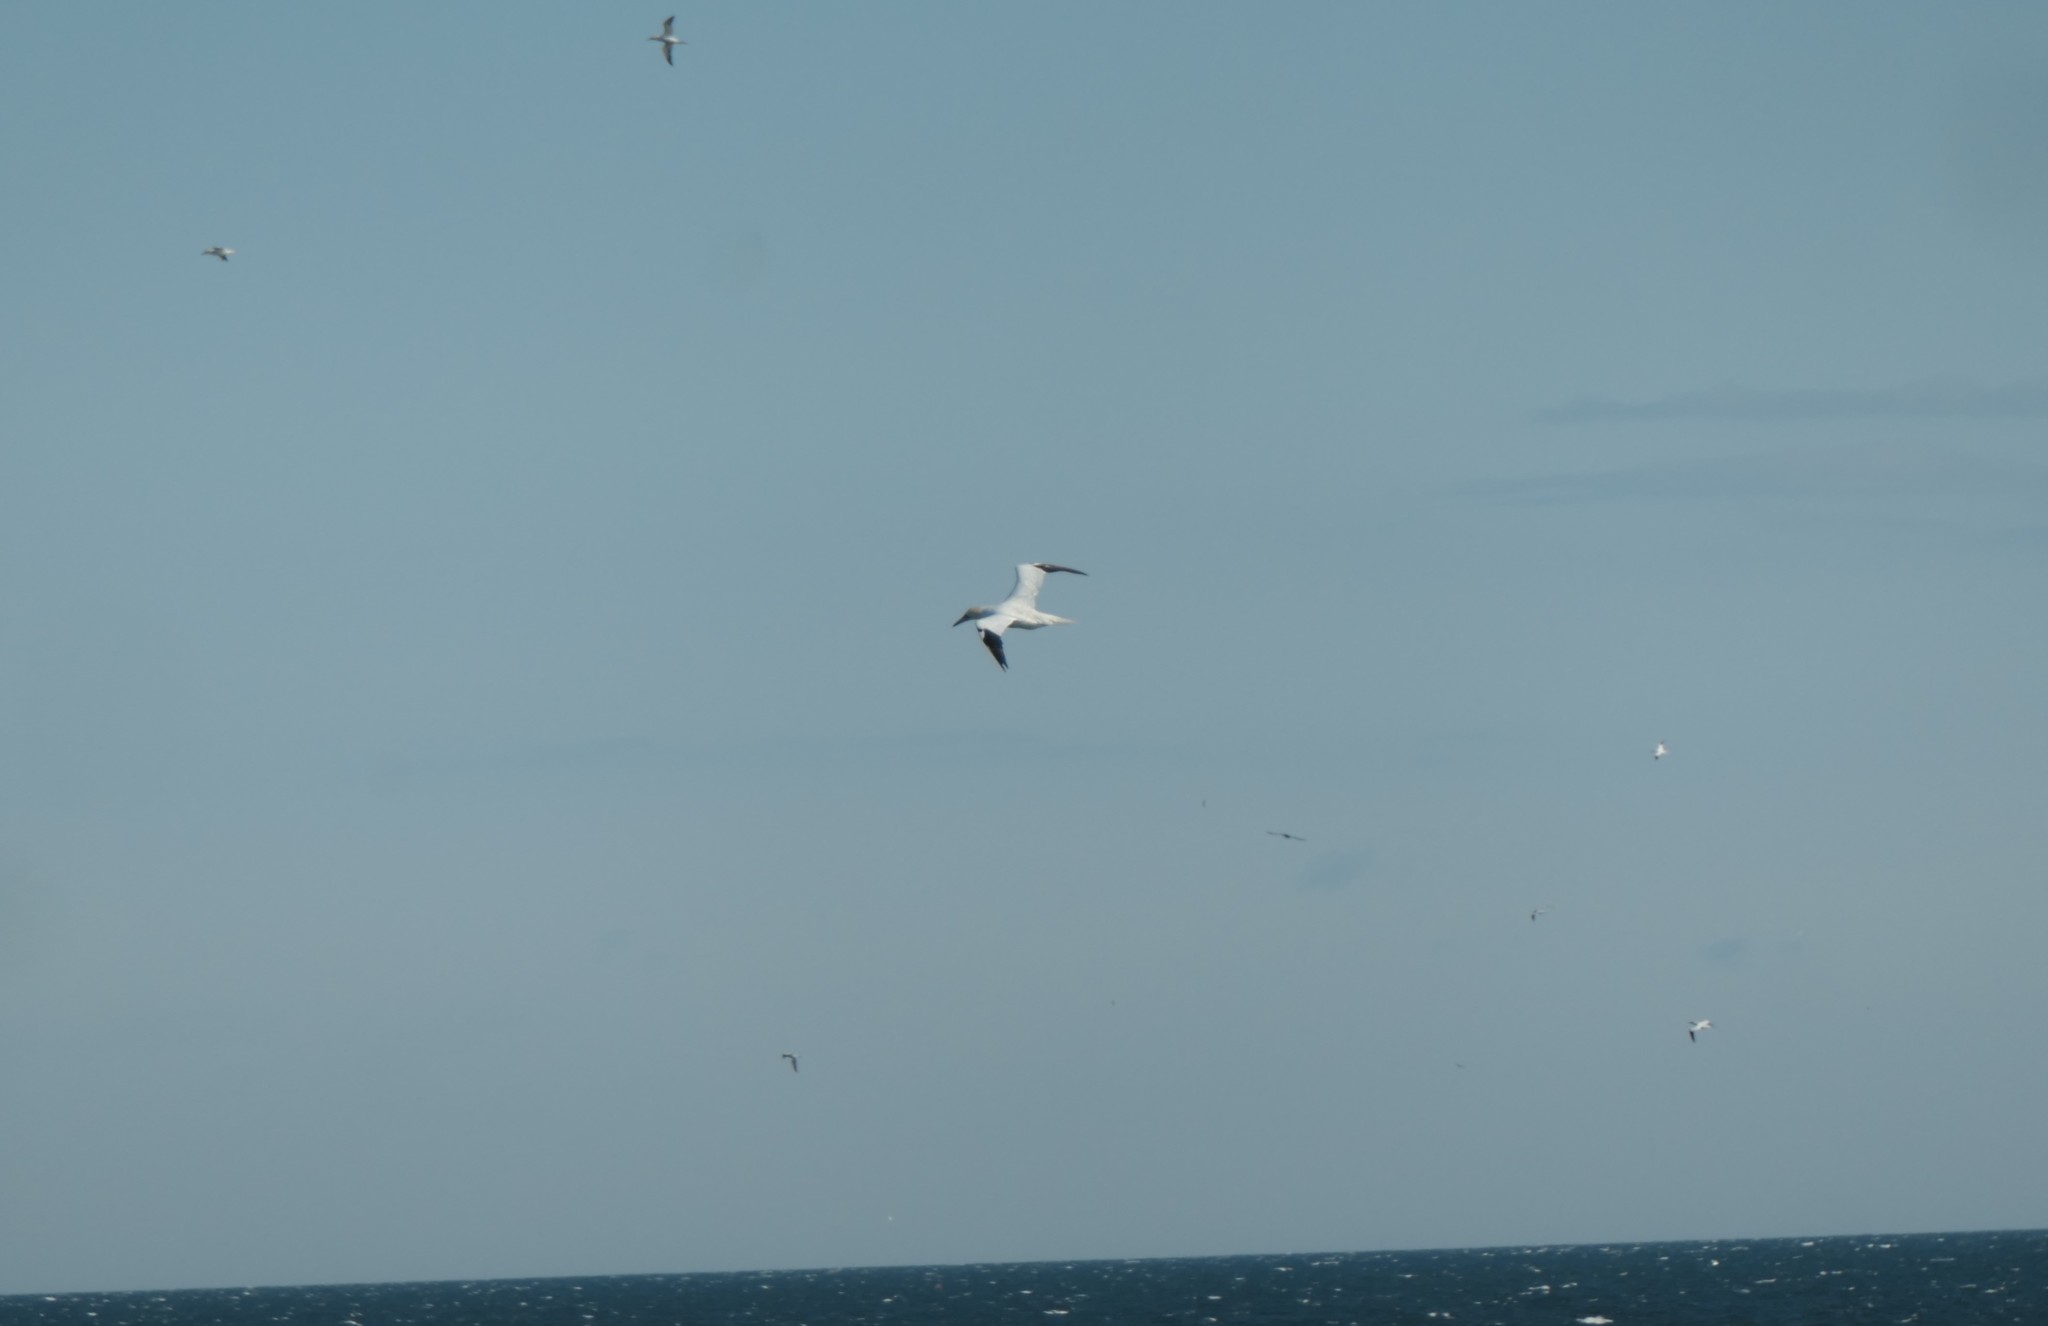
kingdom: Animalia
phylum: Chordata
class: Aves
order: Suliformes
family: Sulidae
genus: Morus
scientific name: Morus bassanus
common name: Northern gannet
